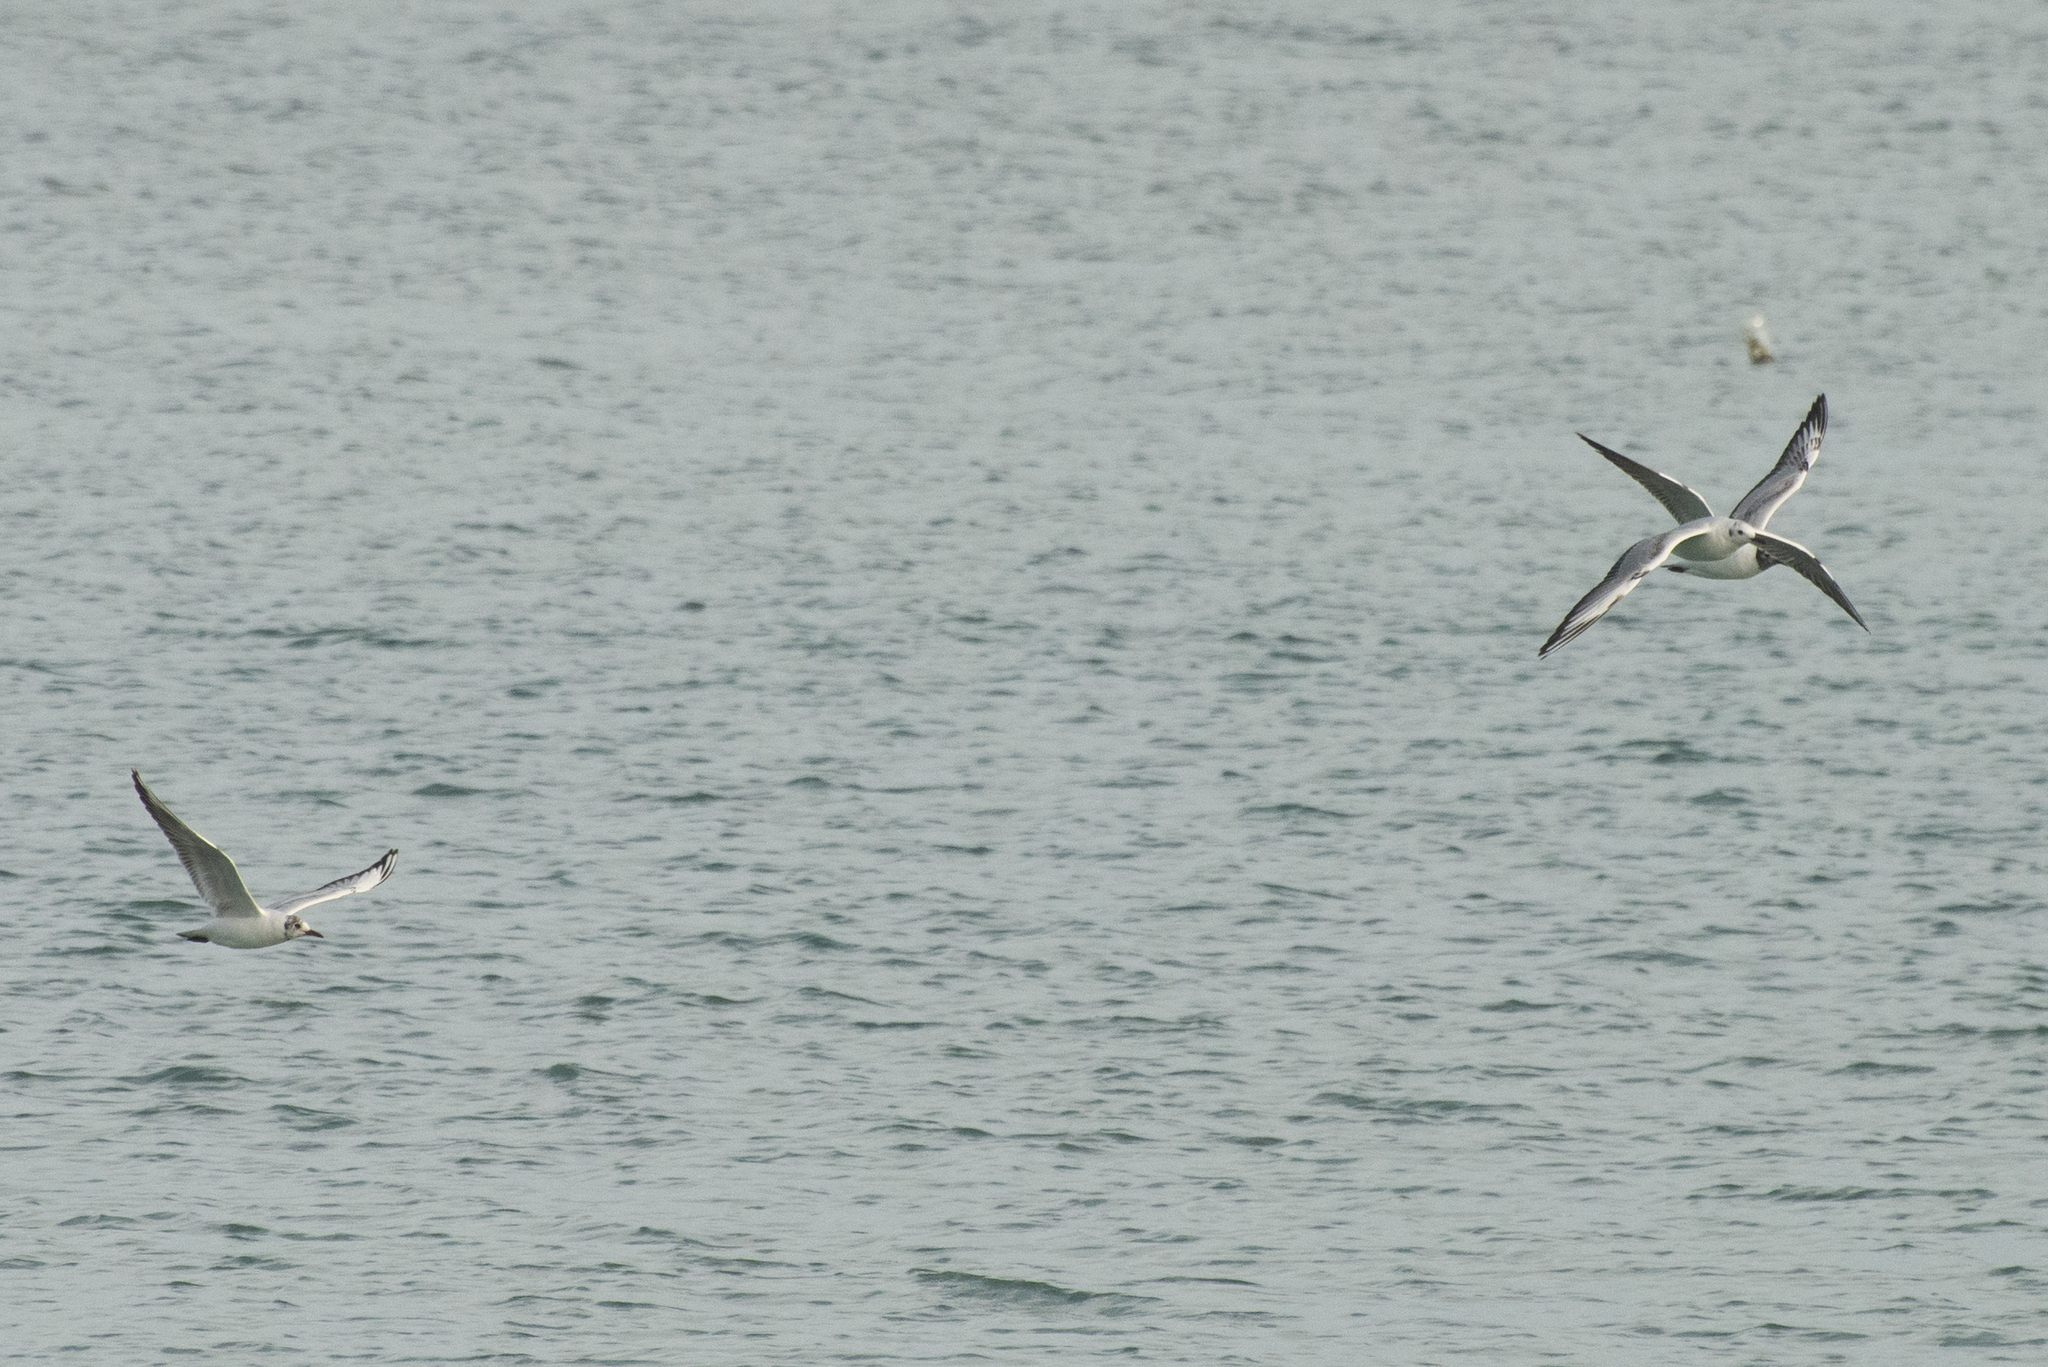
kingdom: Animalia
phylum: Chordata
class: Aves
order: Charadriiformes
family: Laridae
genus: Chroicocephalus
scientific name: Chroicocephalus ridibundus
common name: Black-headed gull
